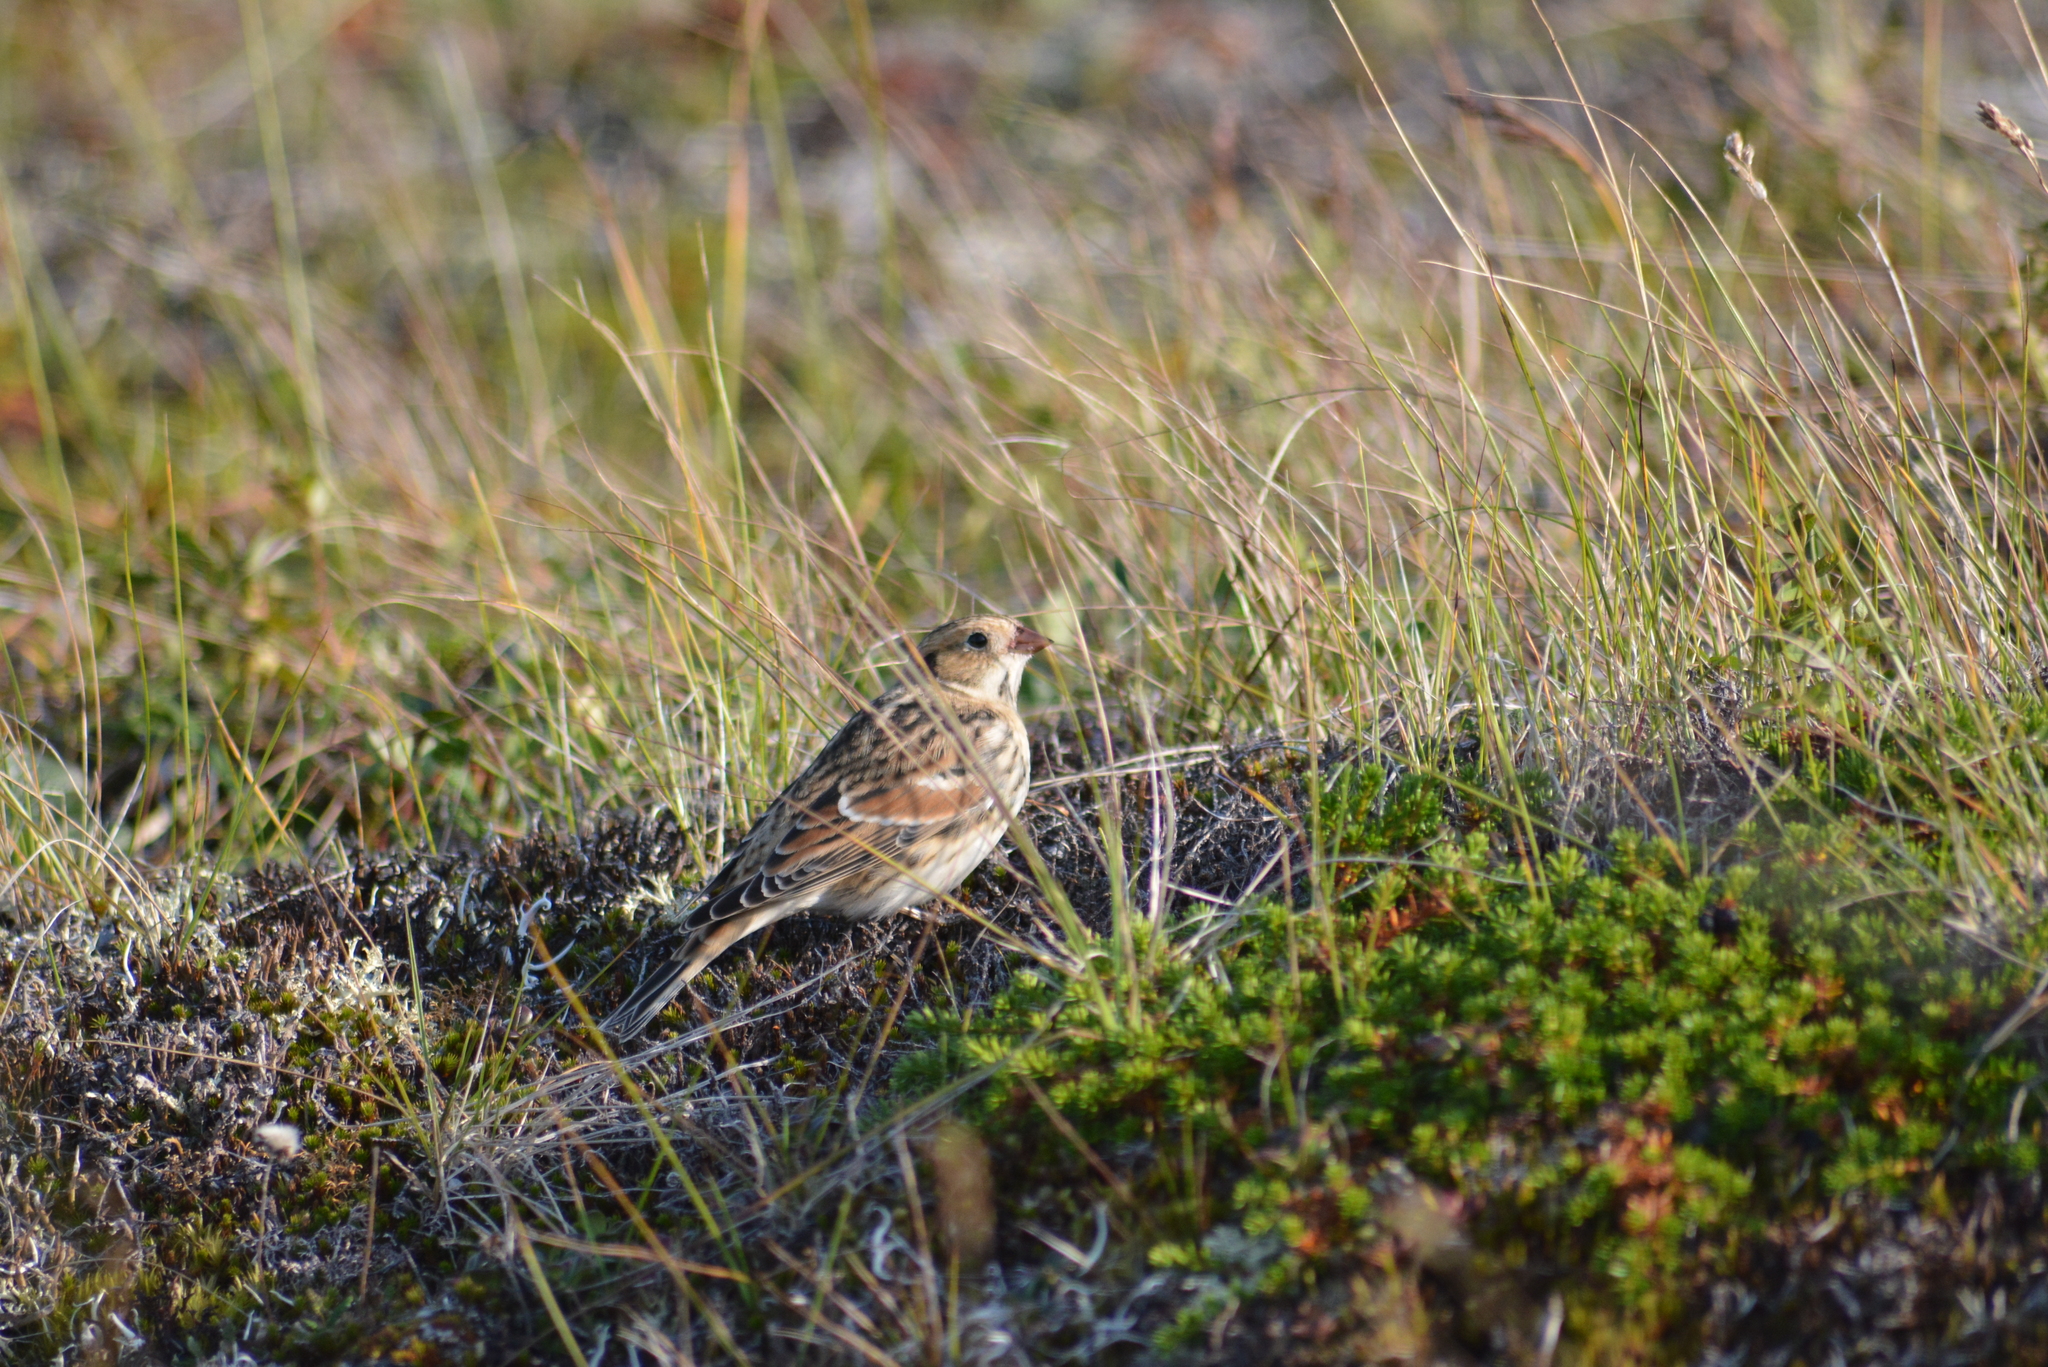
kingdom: Animalia
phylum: Chordata
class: Aves
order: Passeriformes
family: Calcariidae
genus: Calcarius
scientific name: Calcarius lapponicus
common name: Lapland longspur
